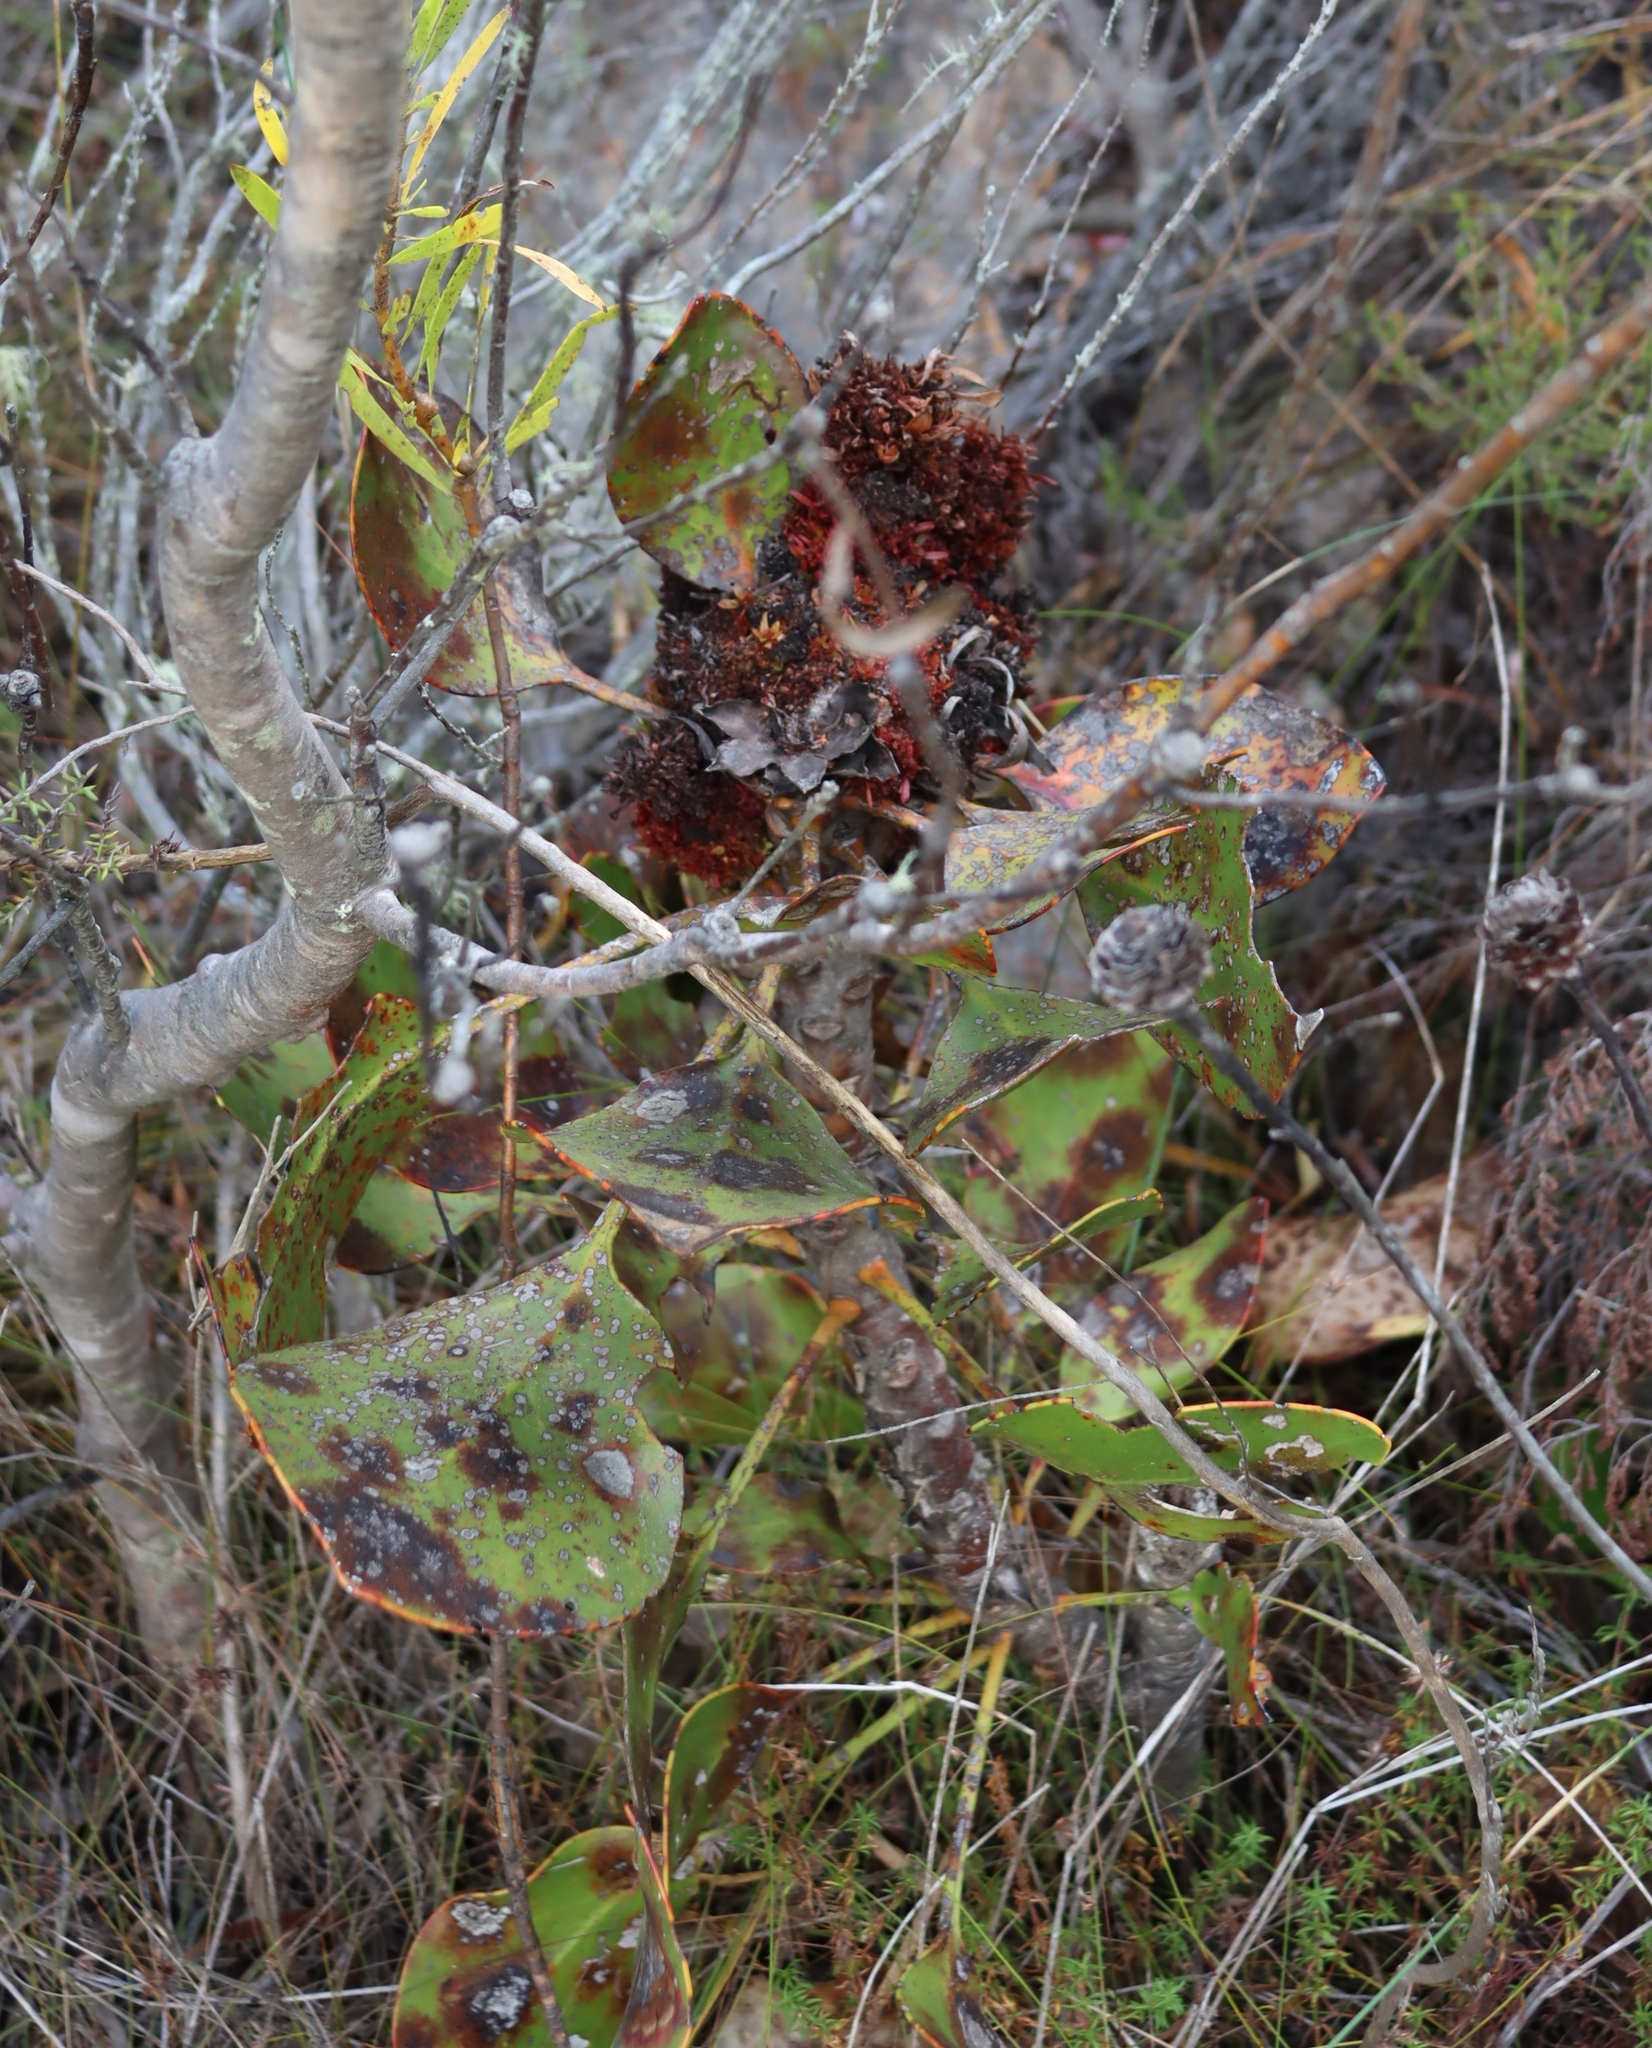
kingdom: Bacteria
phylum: Firmicutes
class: Bacilli
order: Acholeplasmatales
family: Acholeplasmataceae
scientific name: Acholeplasmataceae
